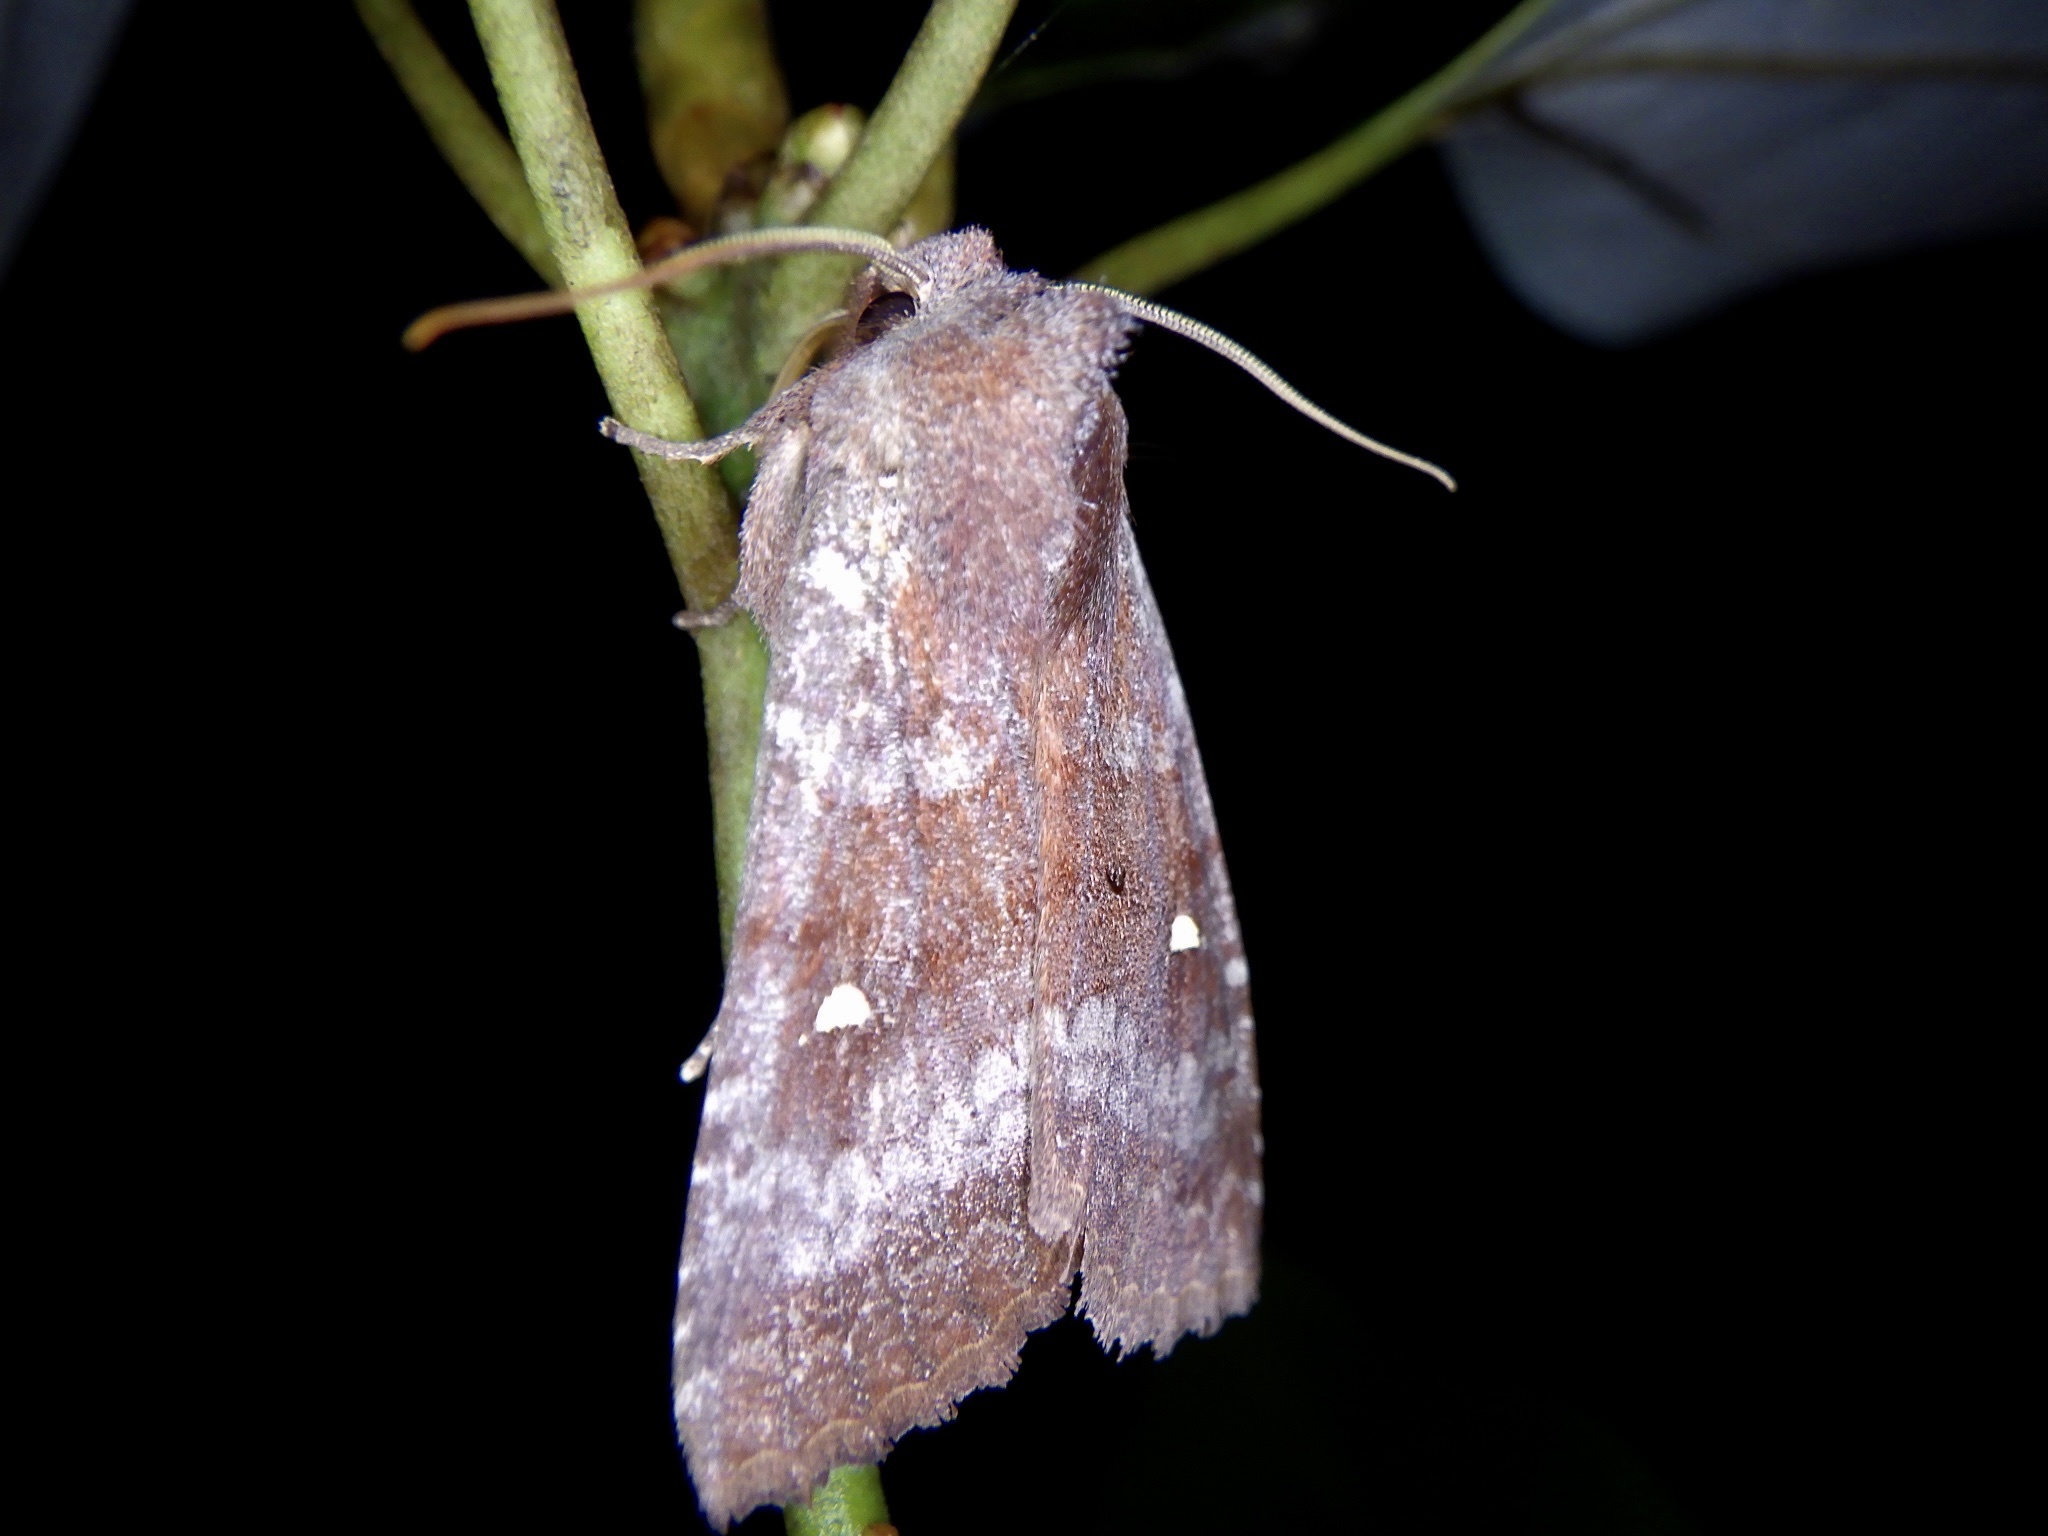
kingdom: Animalia
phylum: Arthropoda
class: Insecta
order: Lepidoptera
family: Noctuidae
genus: Eupsilia
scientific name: Eupsilia unipuncta
